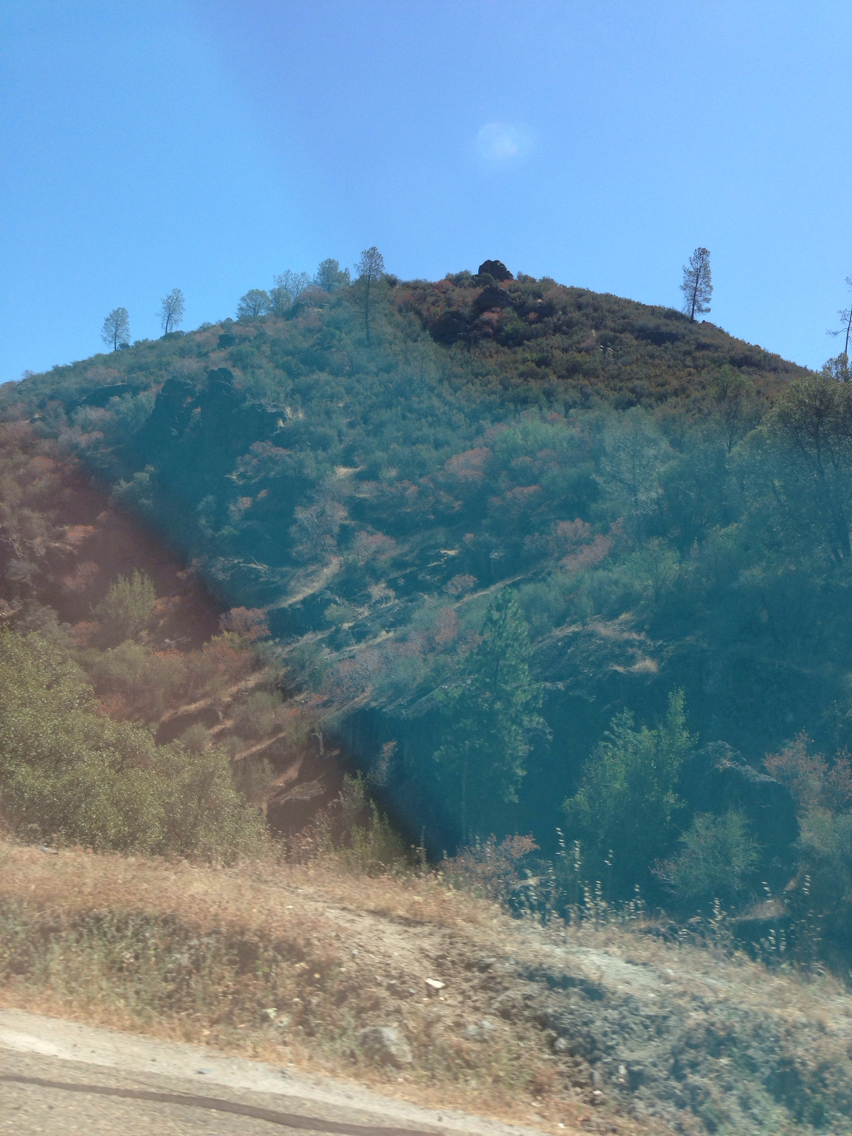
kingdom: Plantae
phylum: Tracheophyta
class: Magnoliopsida
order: Rosales
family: Rosaceae
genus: Adenostoma
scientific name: Adenostoma fasciculatum
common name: Chamise
